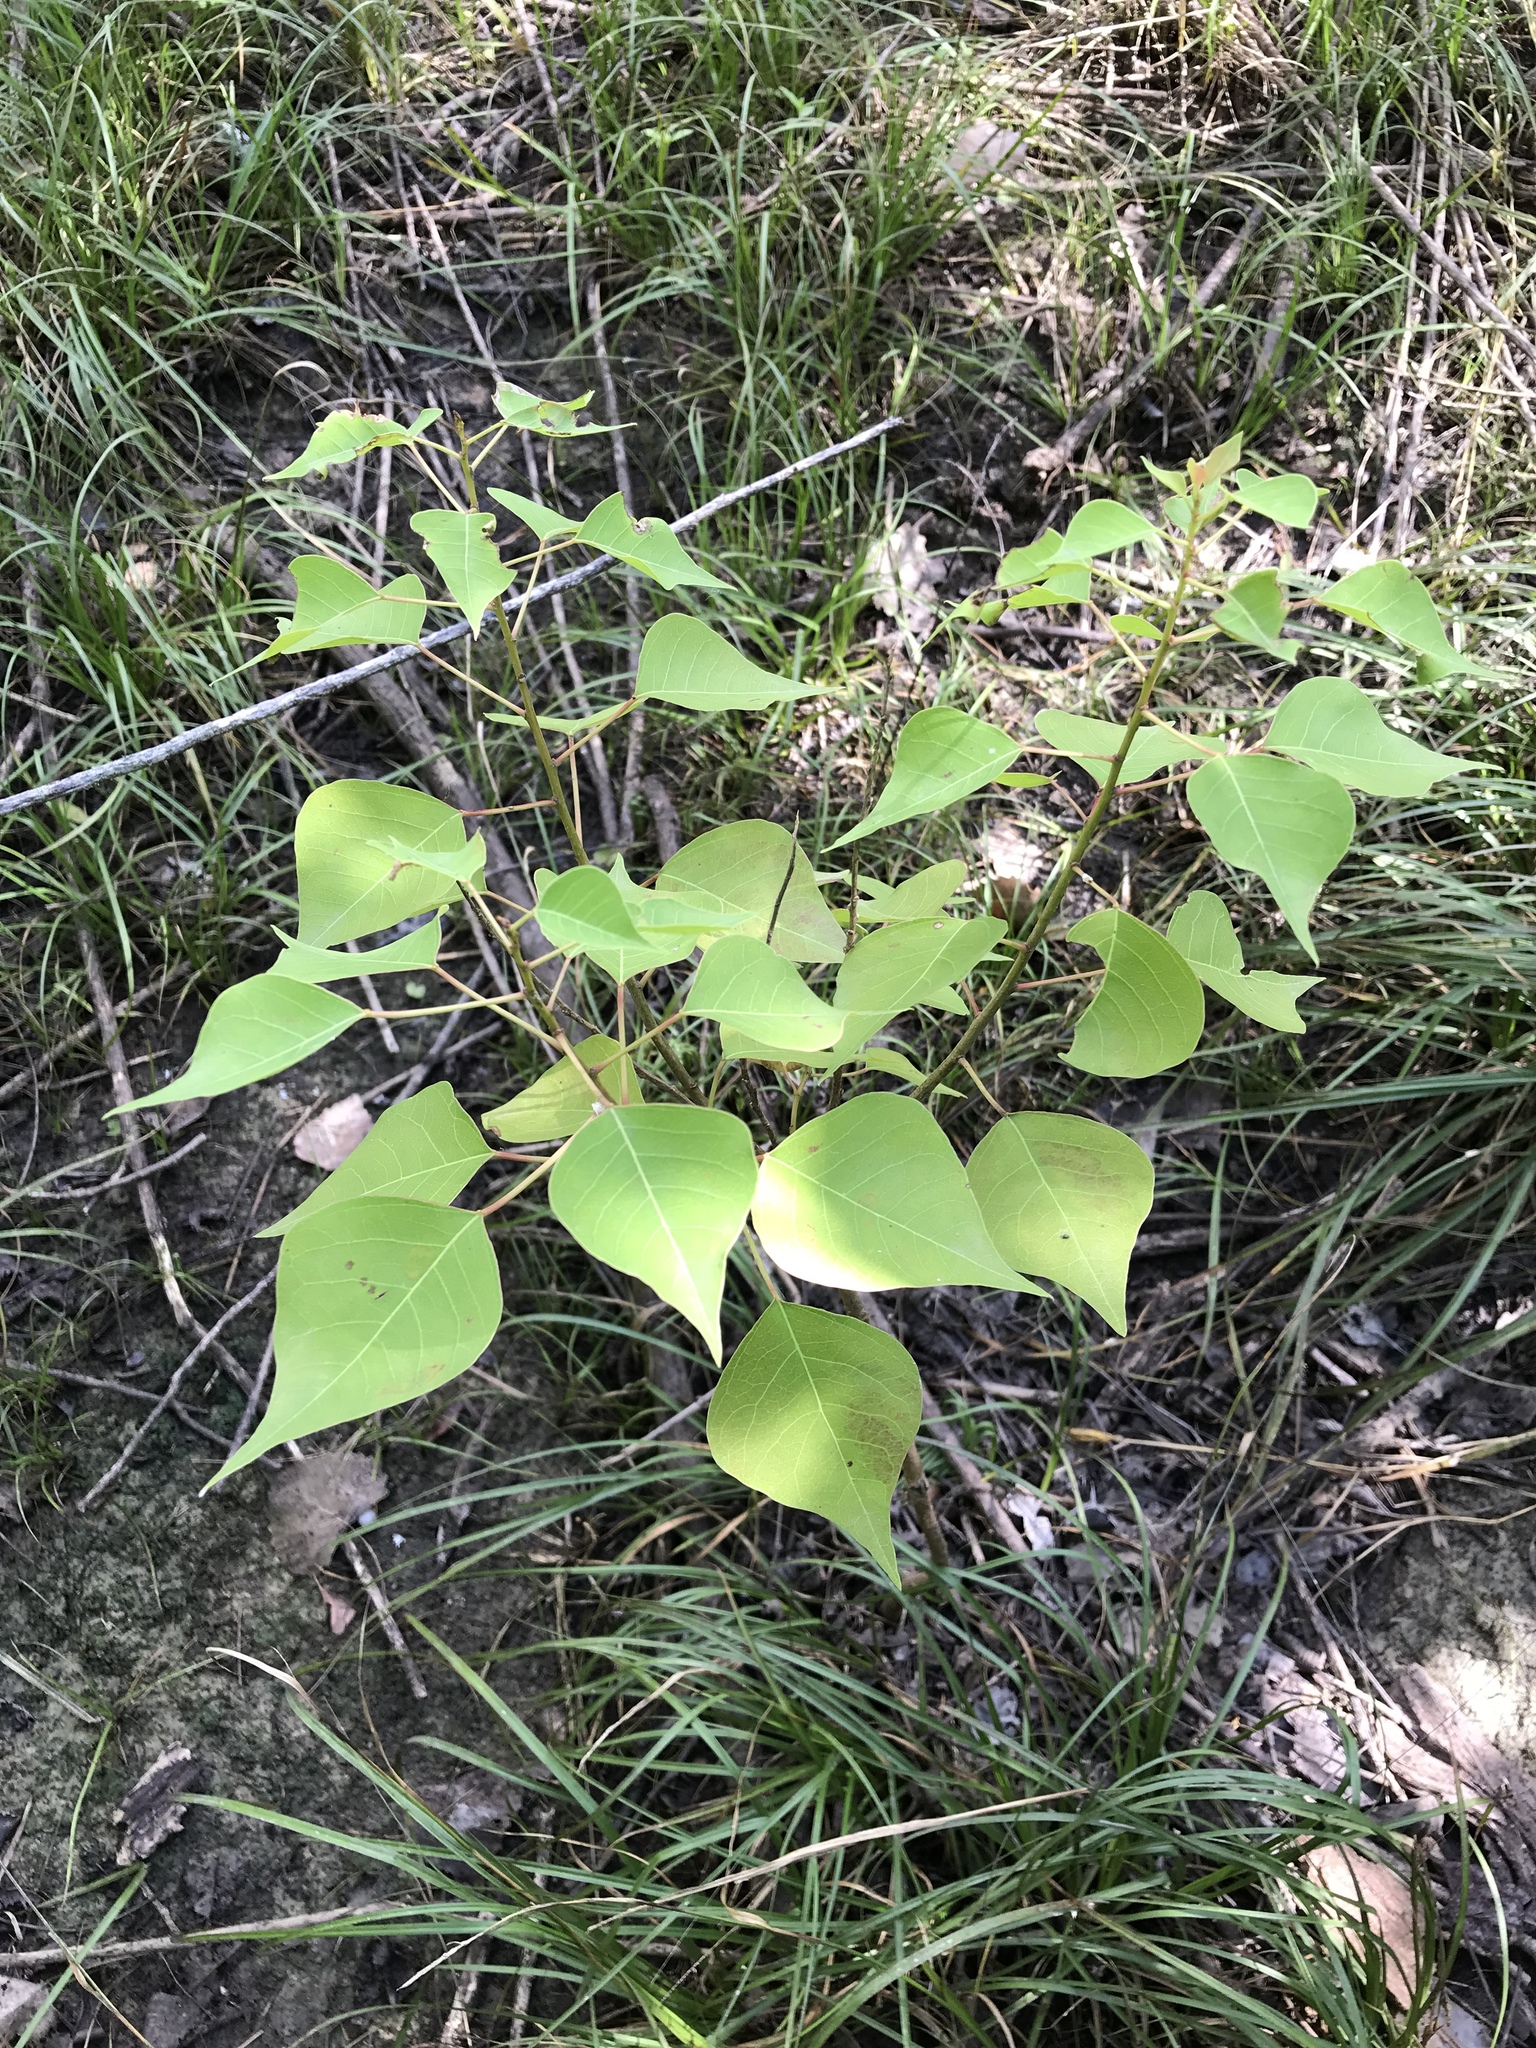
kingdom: Plantae
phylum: Tracheophyta
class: Magnoliopsida
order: Malpighiales
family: Euphorbiaceae
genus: Triadica
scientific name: Triadica sebifera
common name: Chinese tallow
